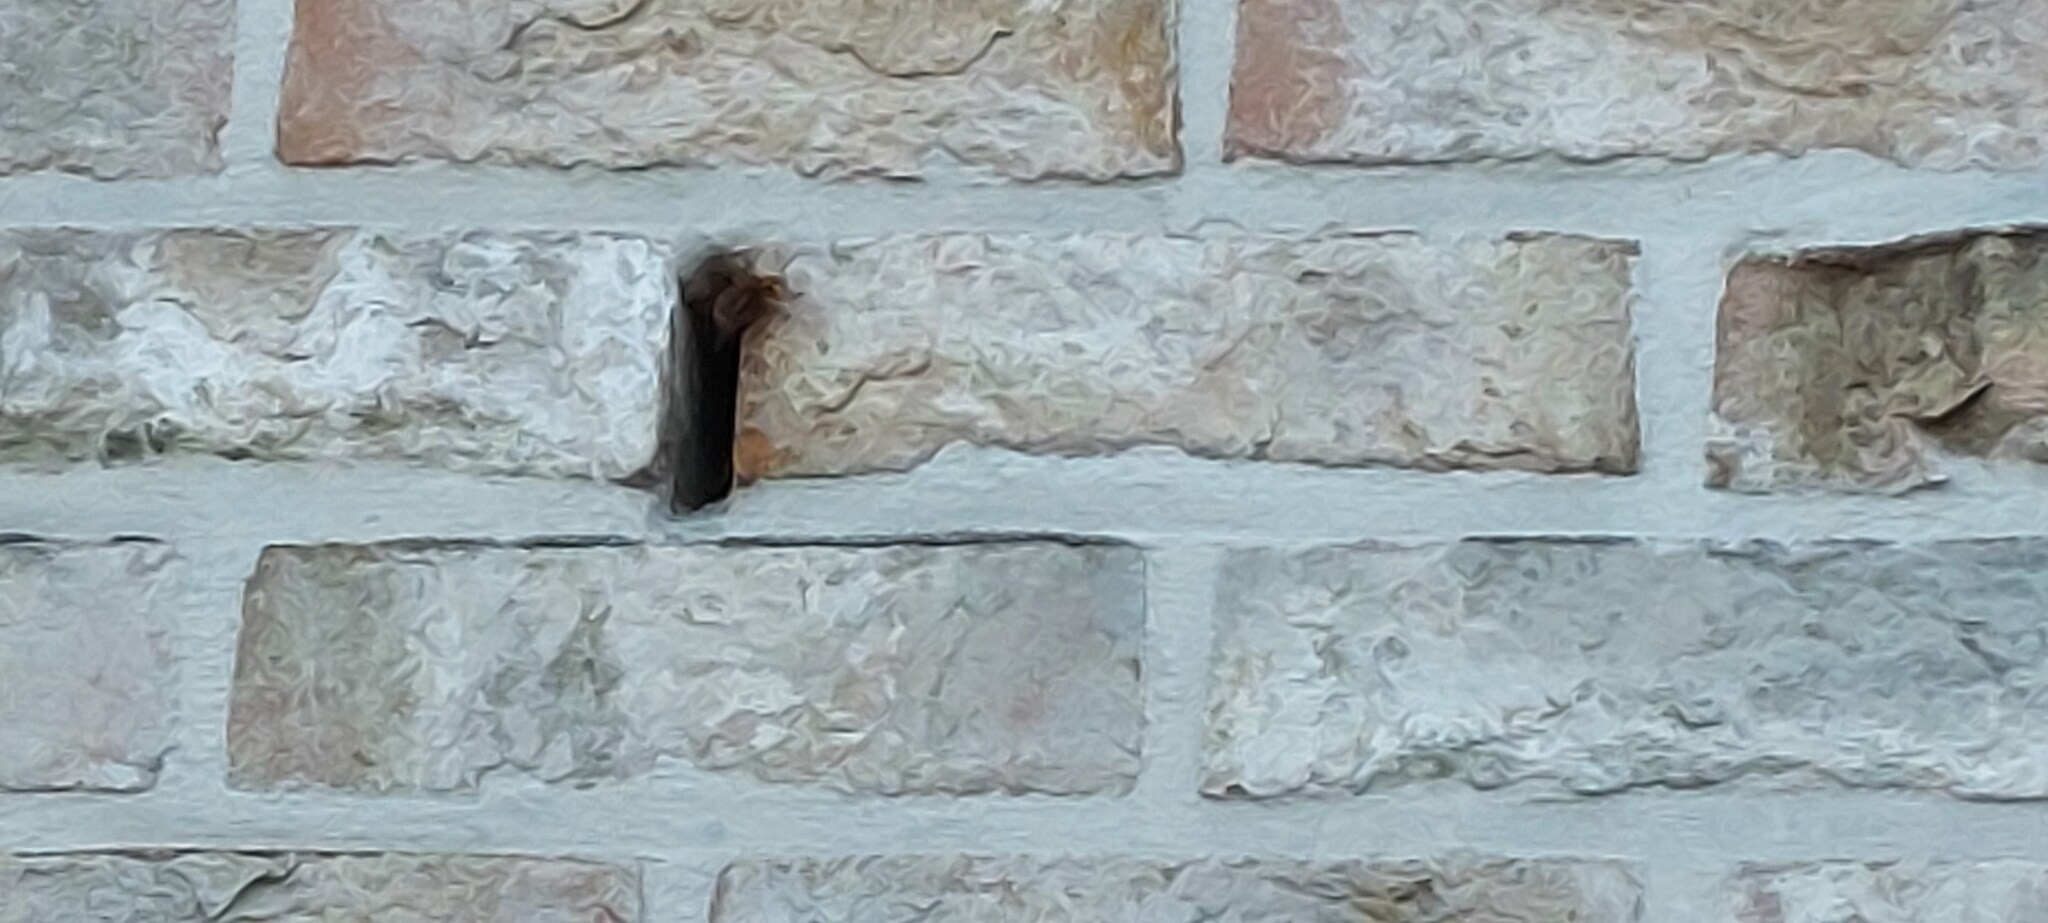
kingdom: Animalia
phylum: Arthropoda
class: Insecta
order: Hymenoptera
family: Vespidae
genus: Vespa
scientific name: Vespa crabro
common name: Hornet
